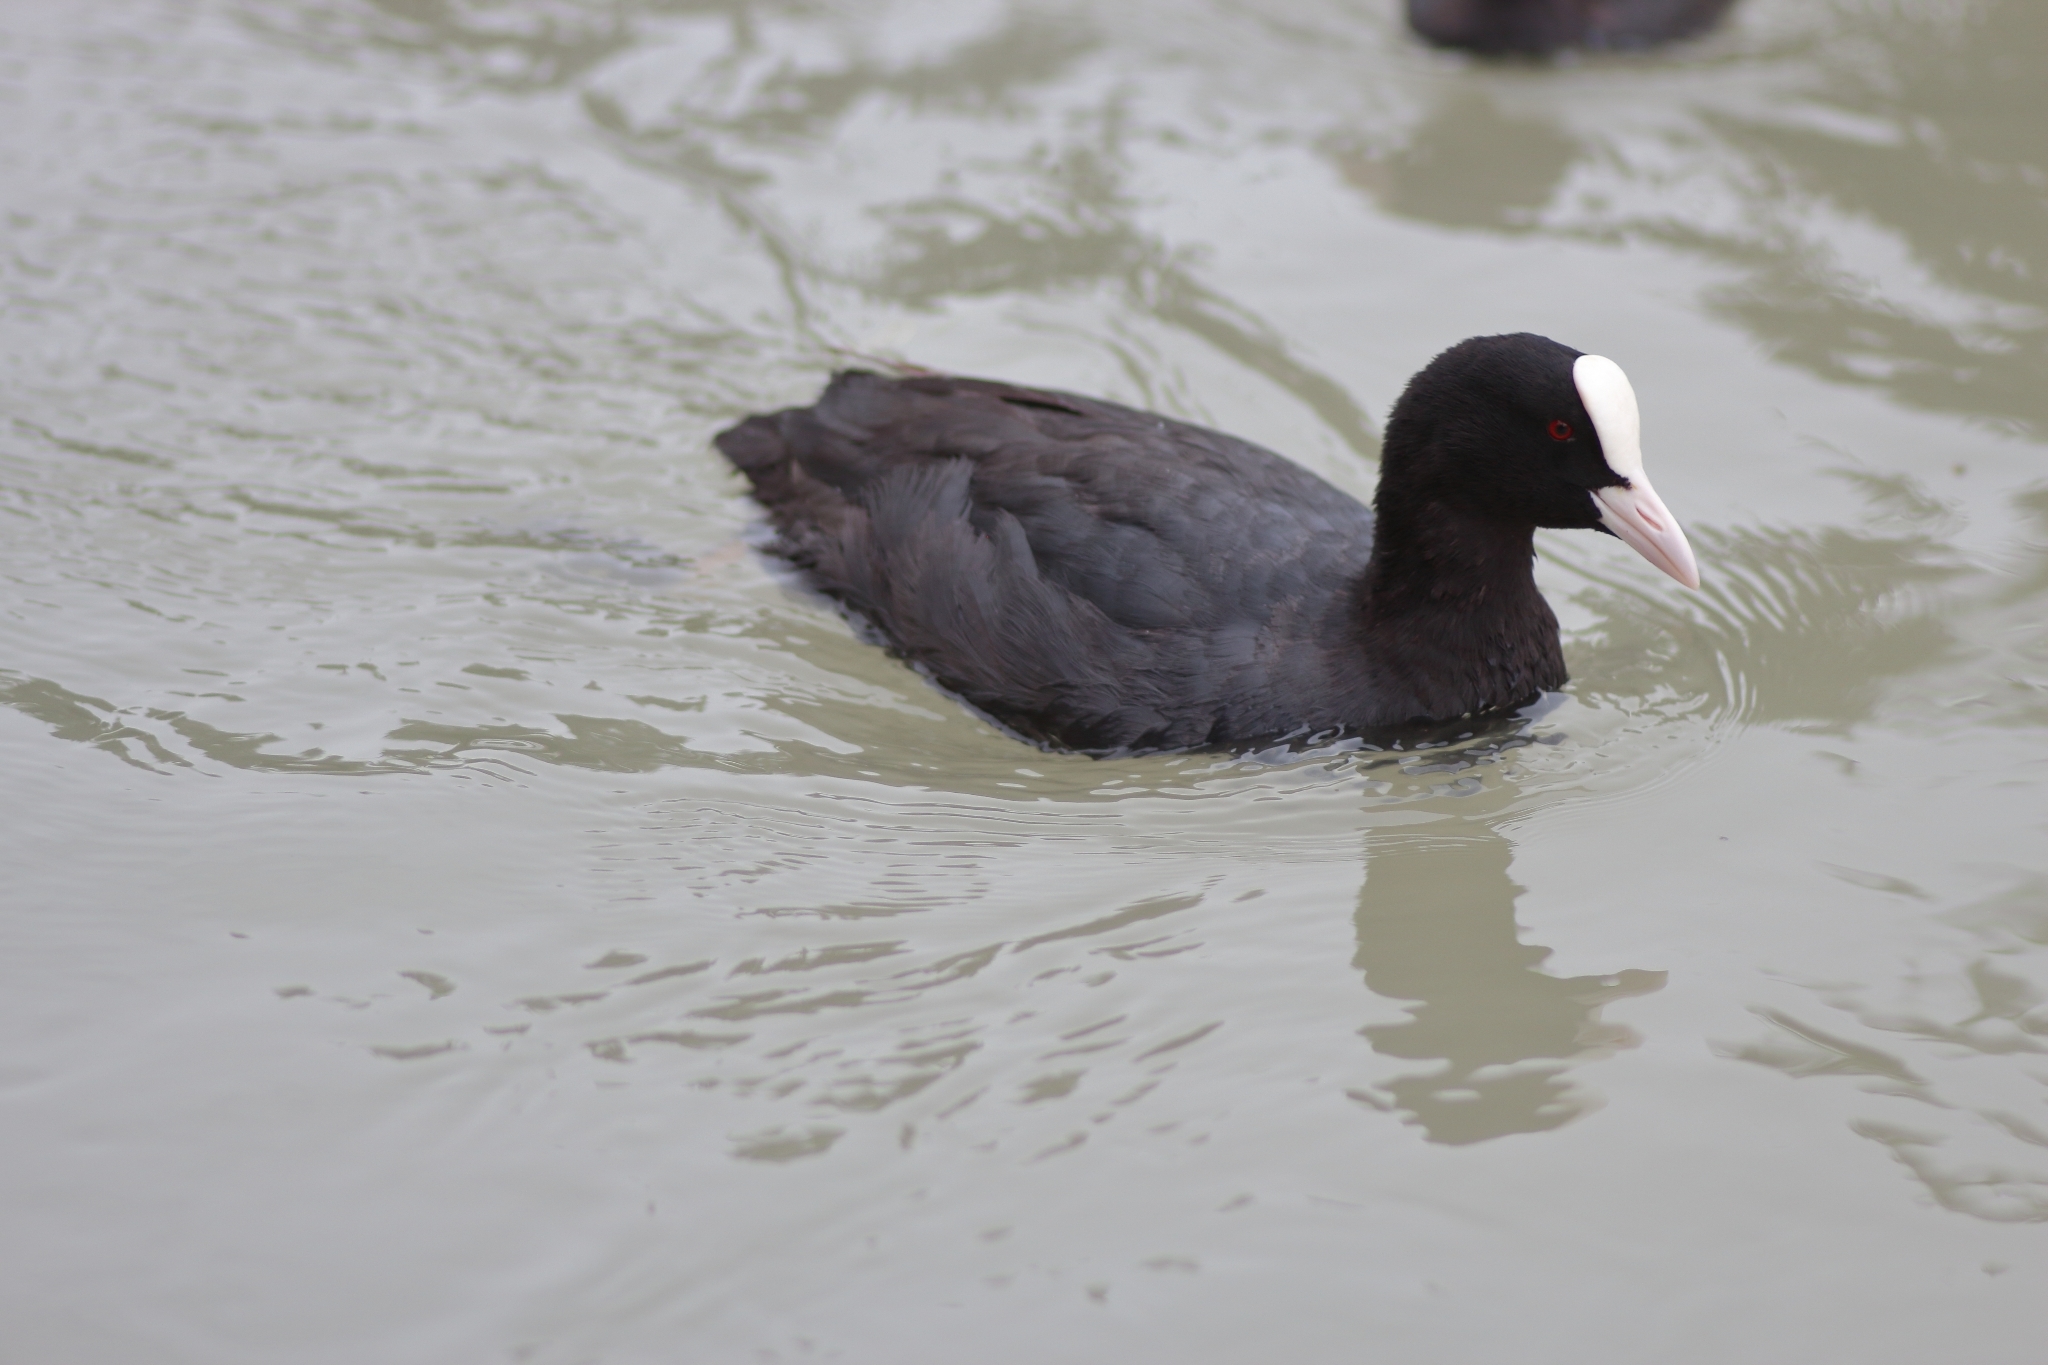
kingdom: Animalia
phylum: Chordata
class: Aves
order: Gruiformes
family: Rallidae
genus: Fulica
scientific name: Fulica atra
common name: Eurasian coot
